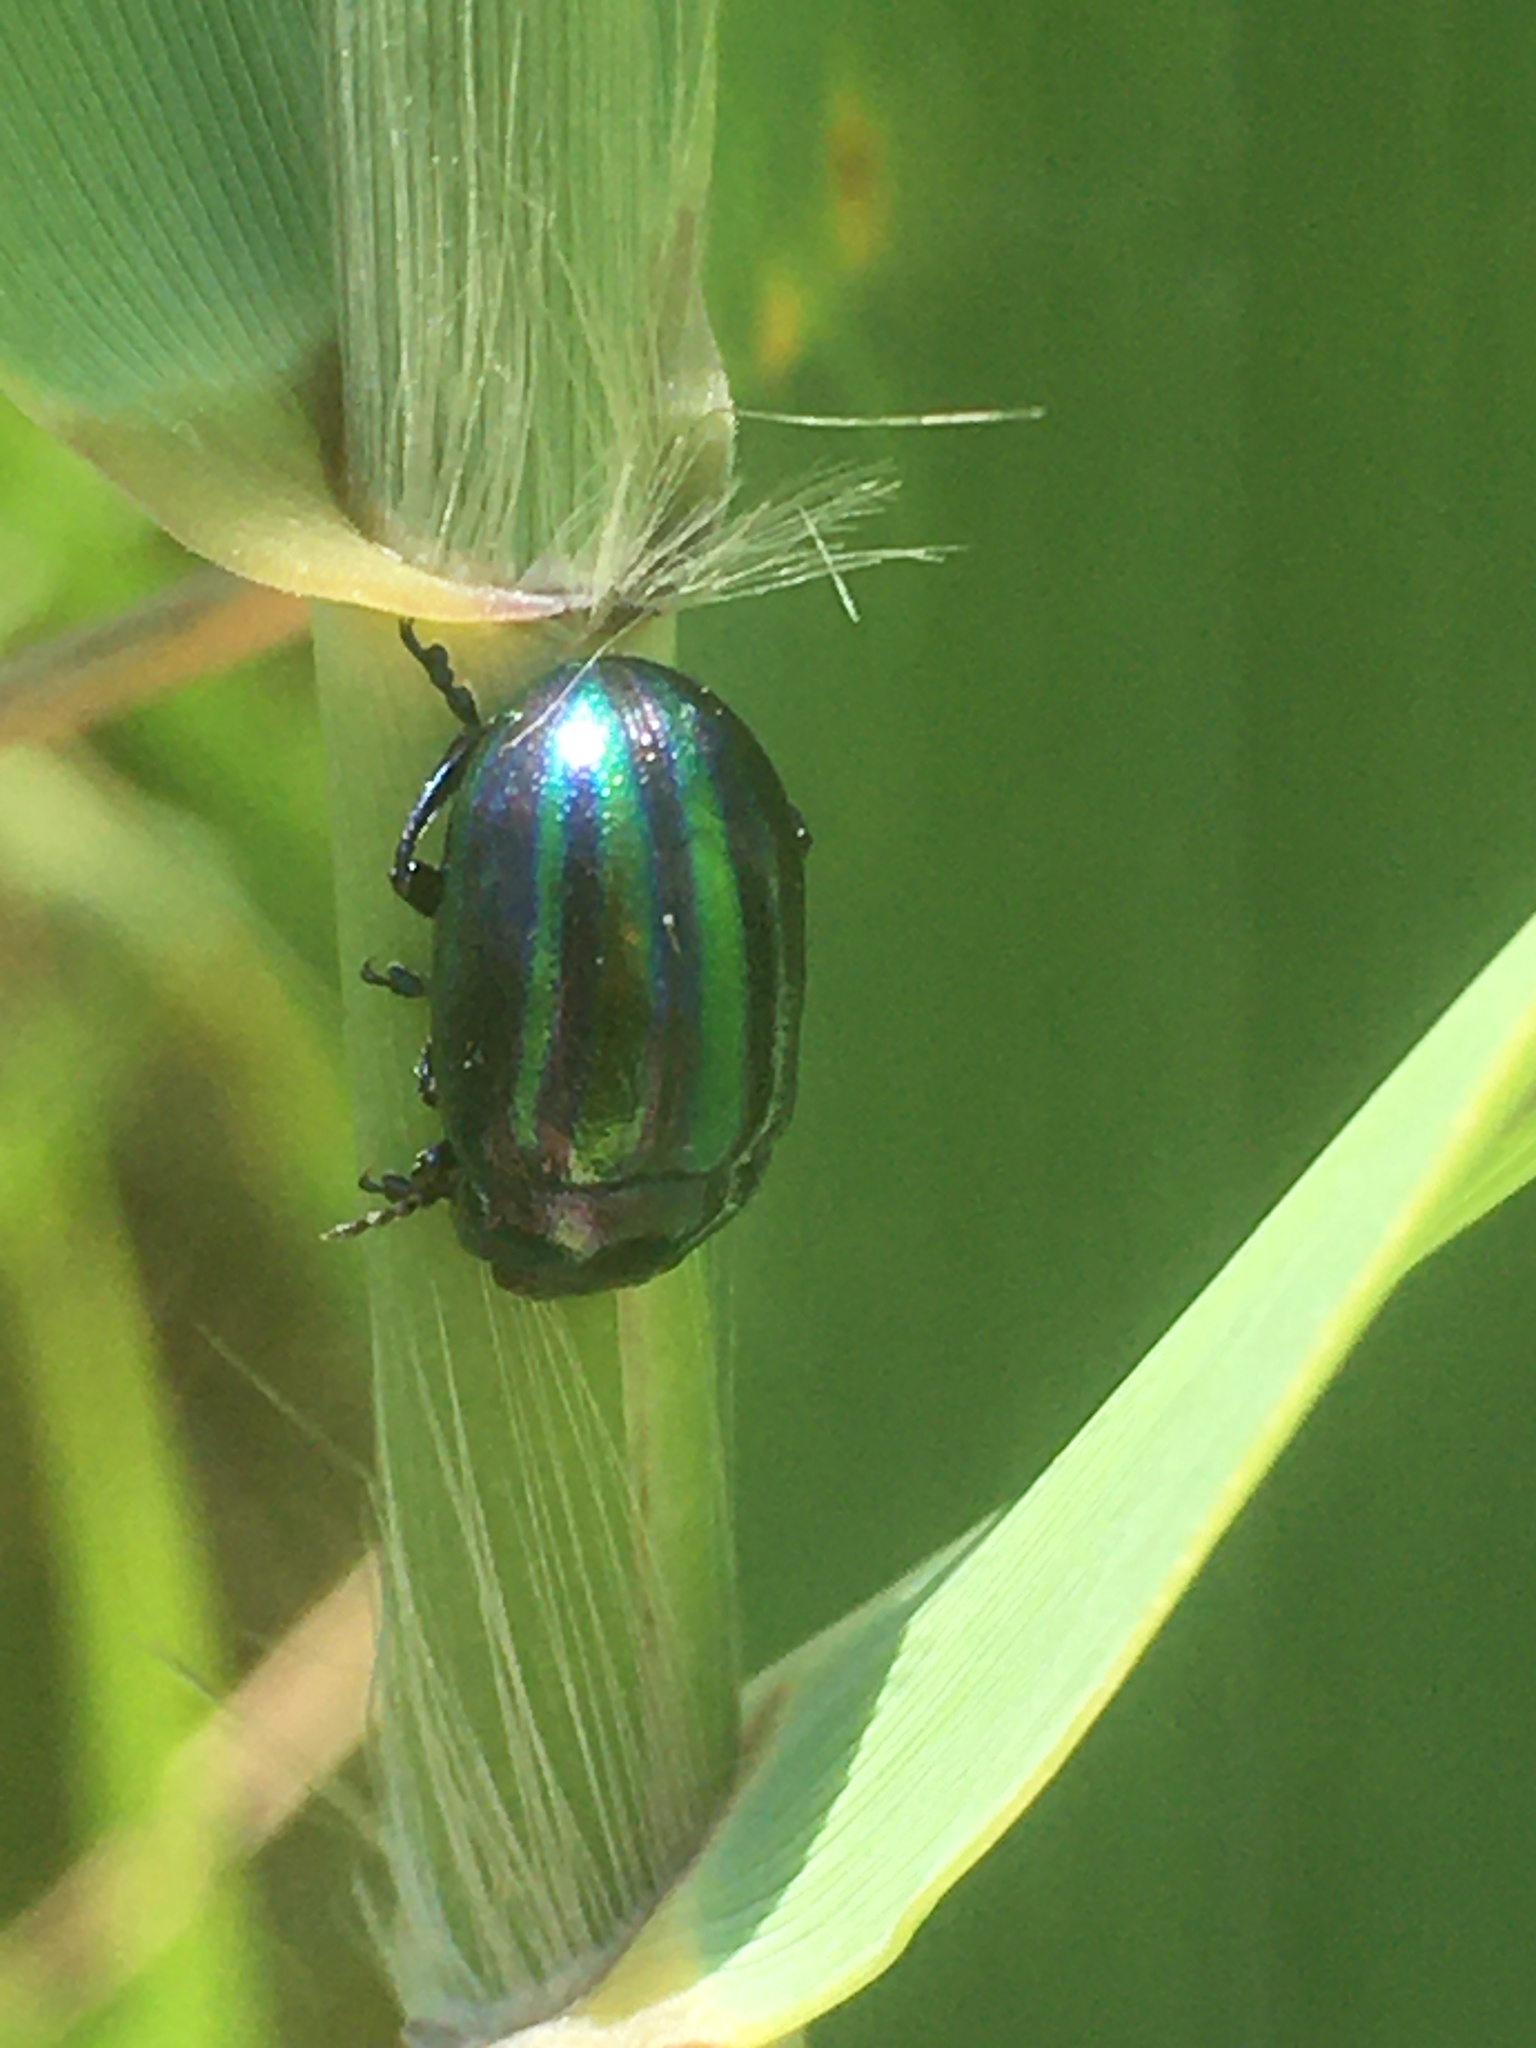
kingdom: Animalia
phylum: Arthropoda
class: Insecta
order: Coleoptera
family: Chrysomelidae
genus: Chrysolina
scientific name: Chrysolina cerealis
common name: Rainbow leaf beetle
